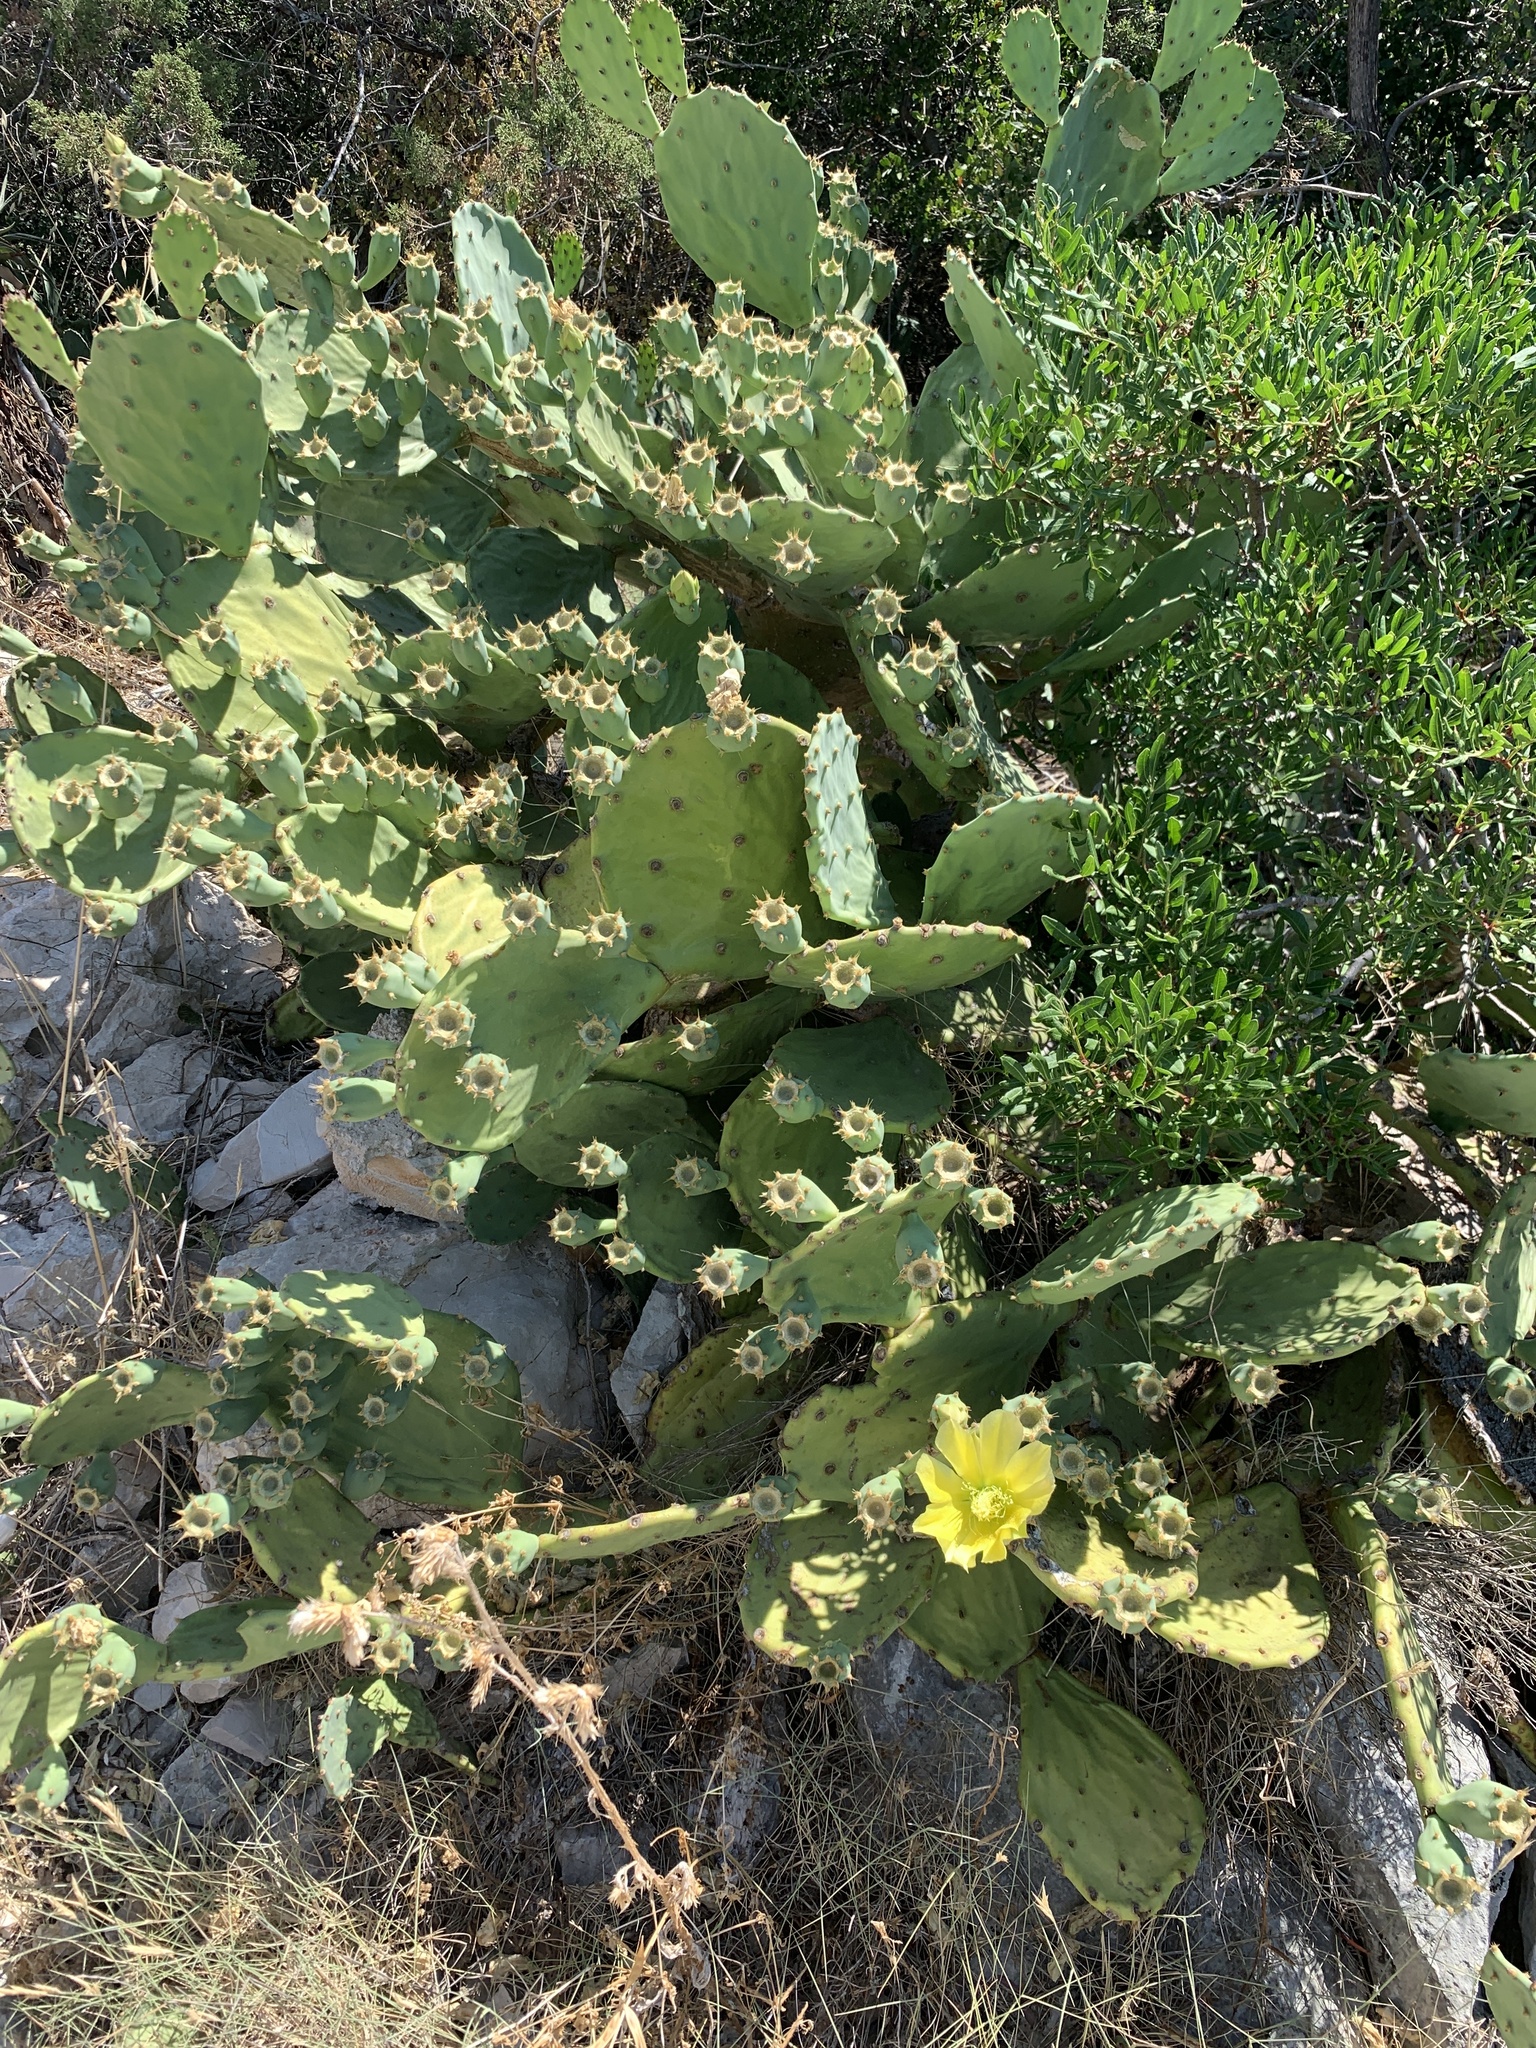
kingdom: Plantae
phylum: Tracheophyta
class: Magnoliopsida
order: Caryophyllales
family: Cactaceae
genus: Opuntia
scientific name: Opuntia anahuacensis
